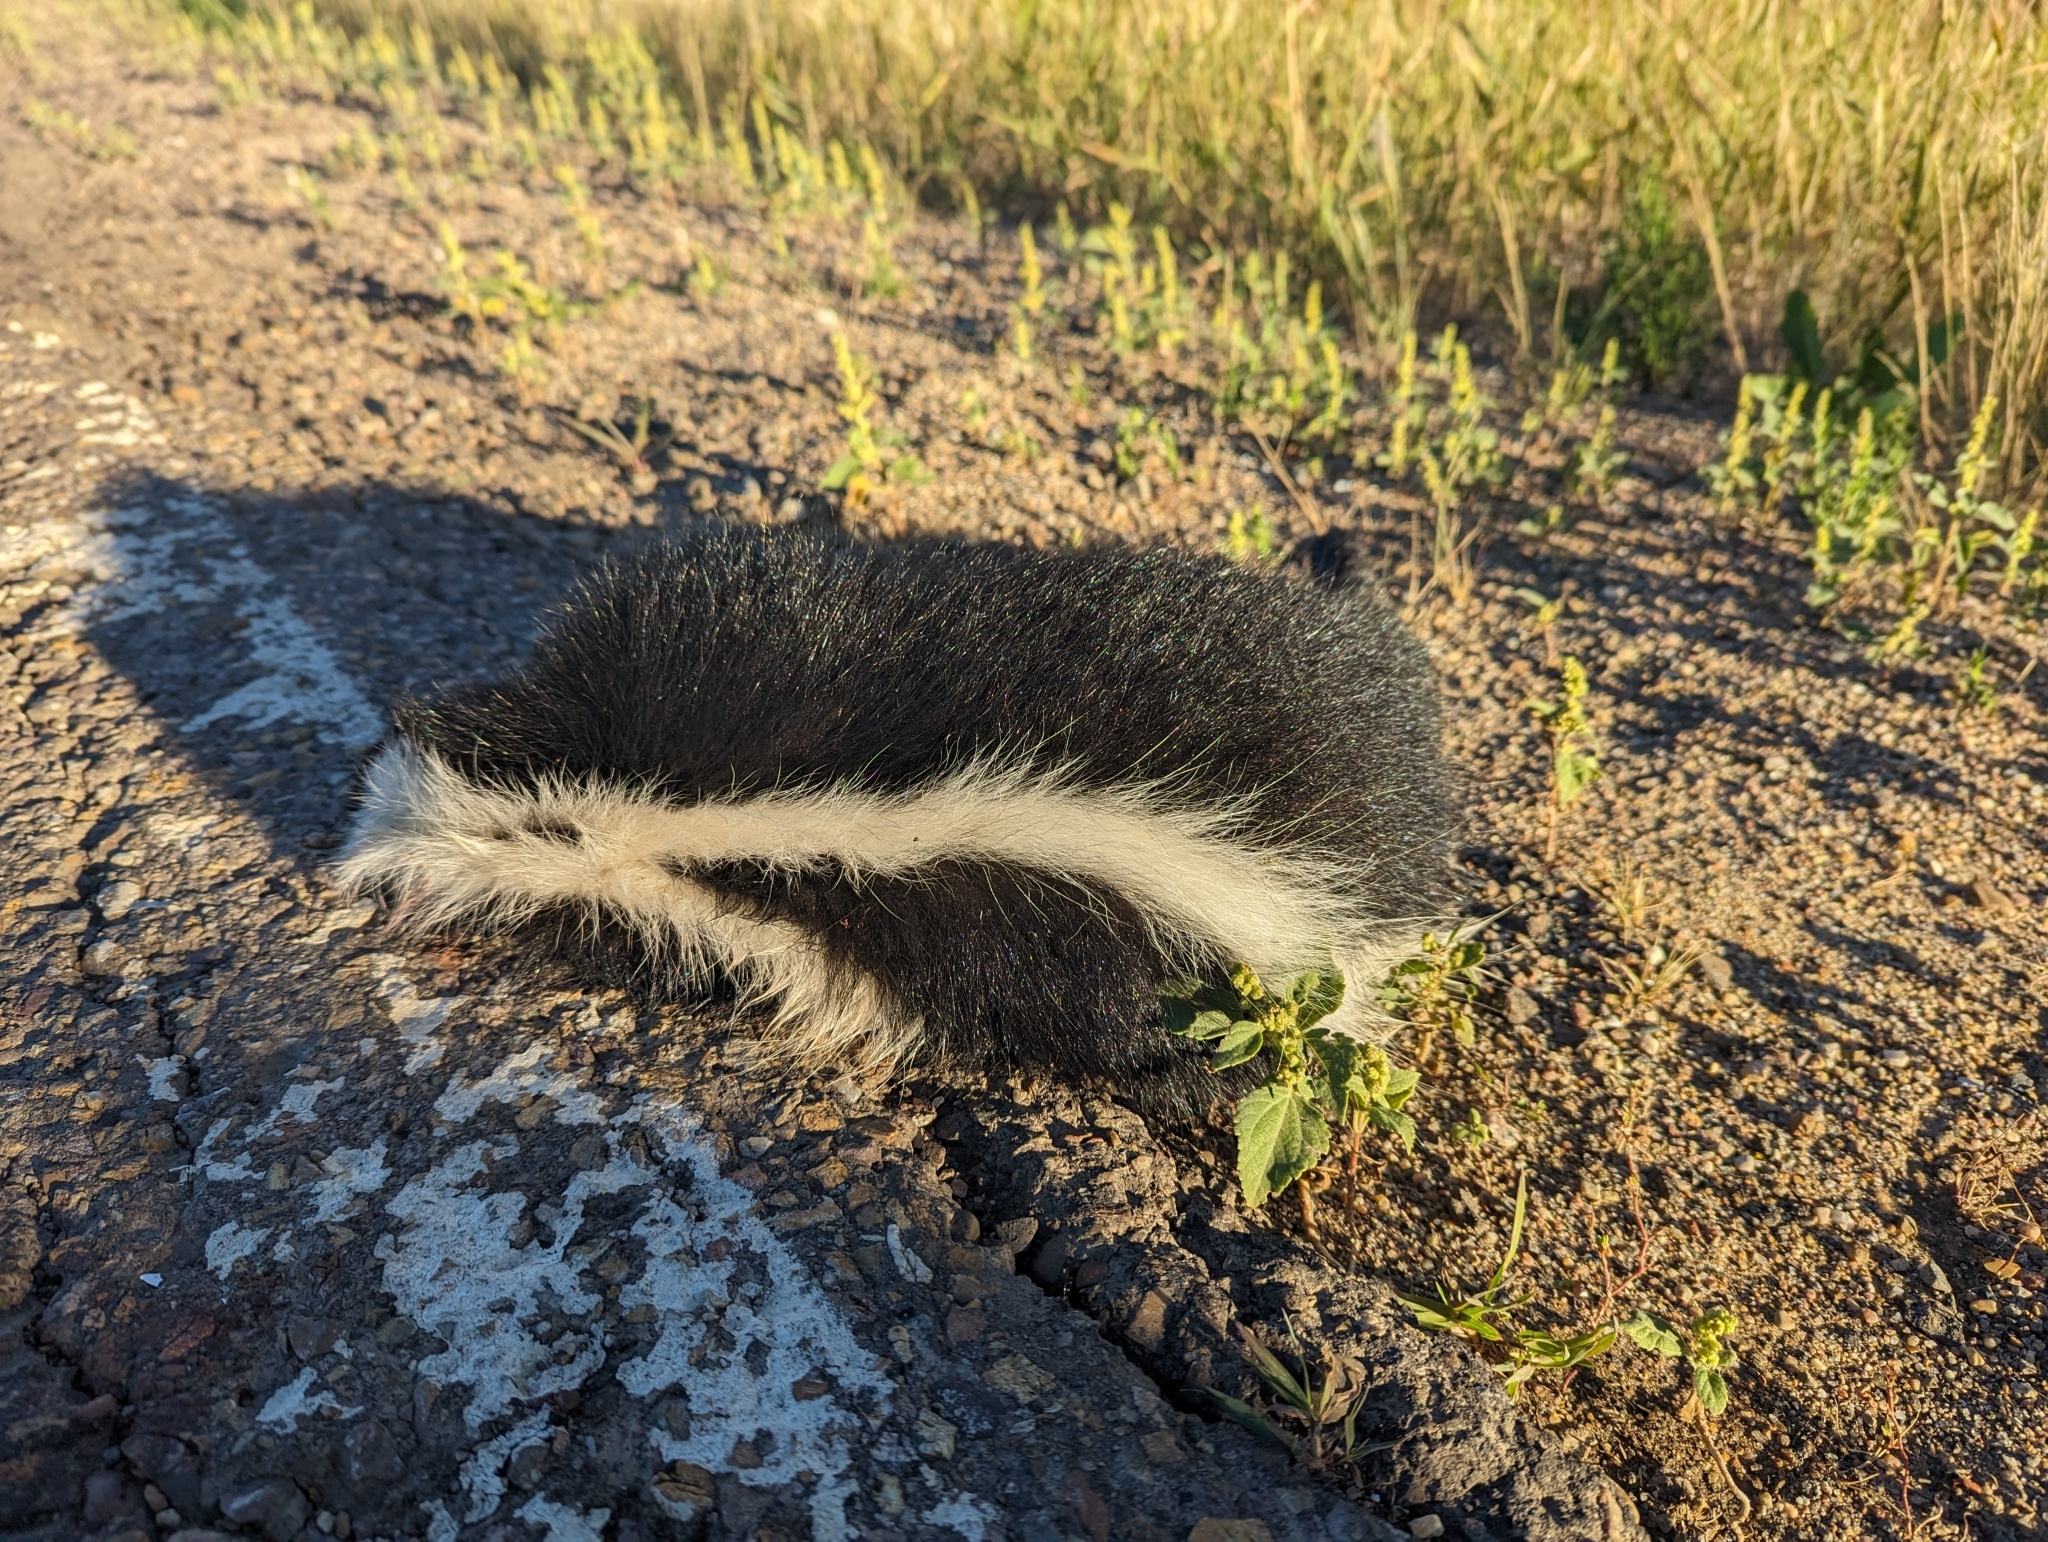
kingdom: Animalia
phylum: Chordata
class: Mammalia
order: Carnivora
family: Mephitidae
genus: Mephitis
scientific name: Mephitis mephitis
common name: Striped skunk
